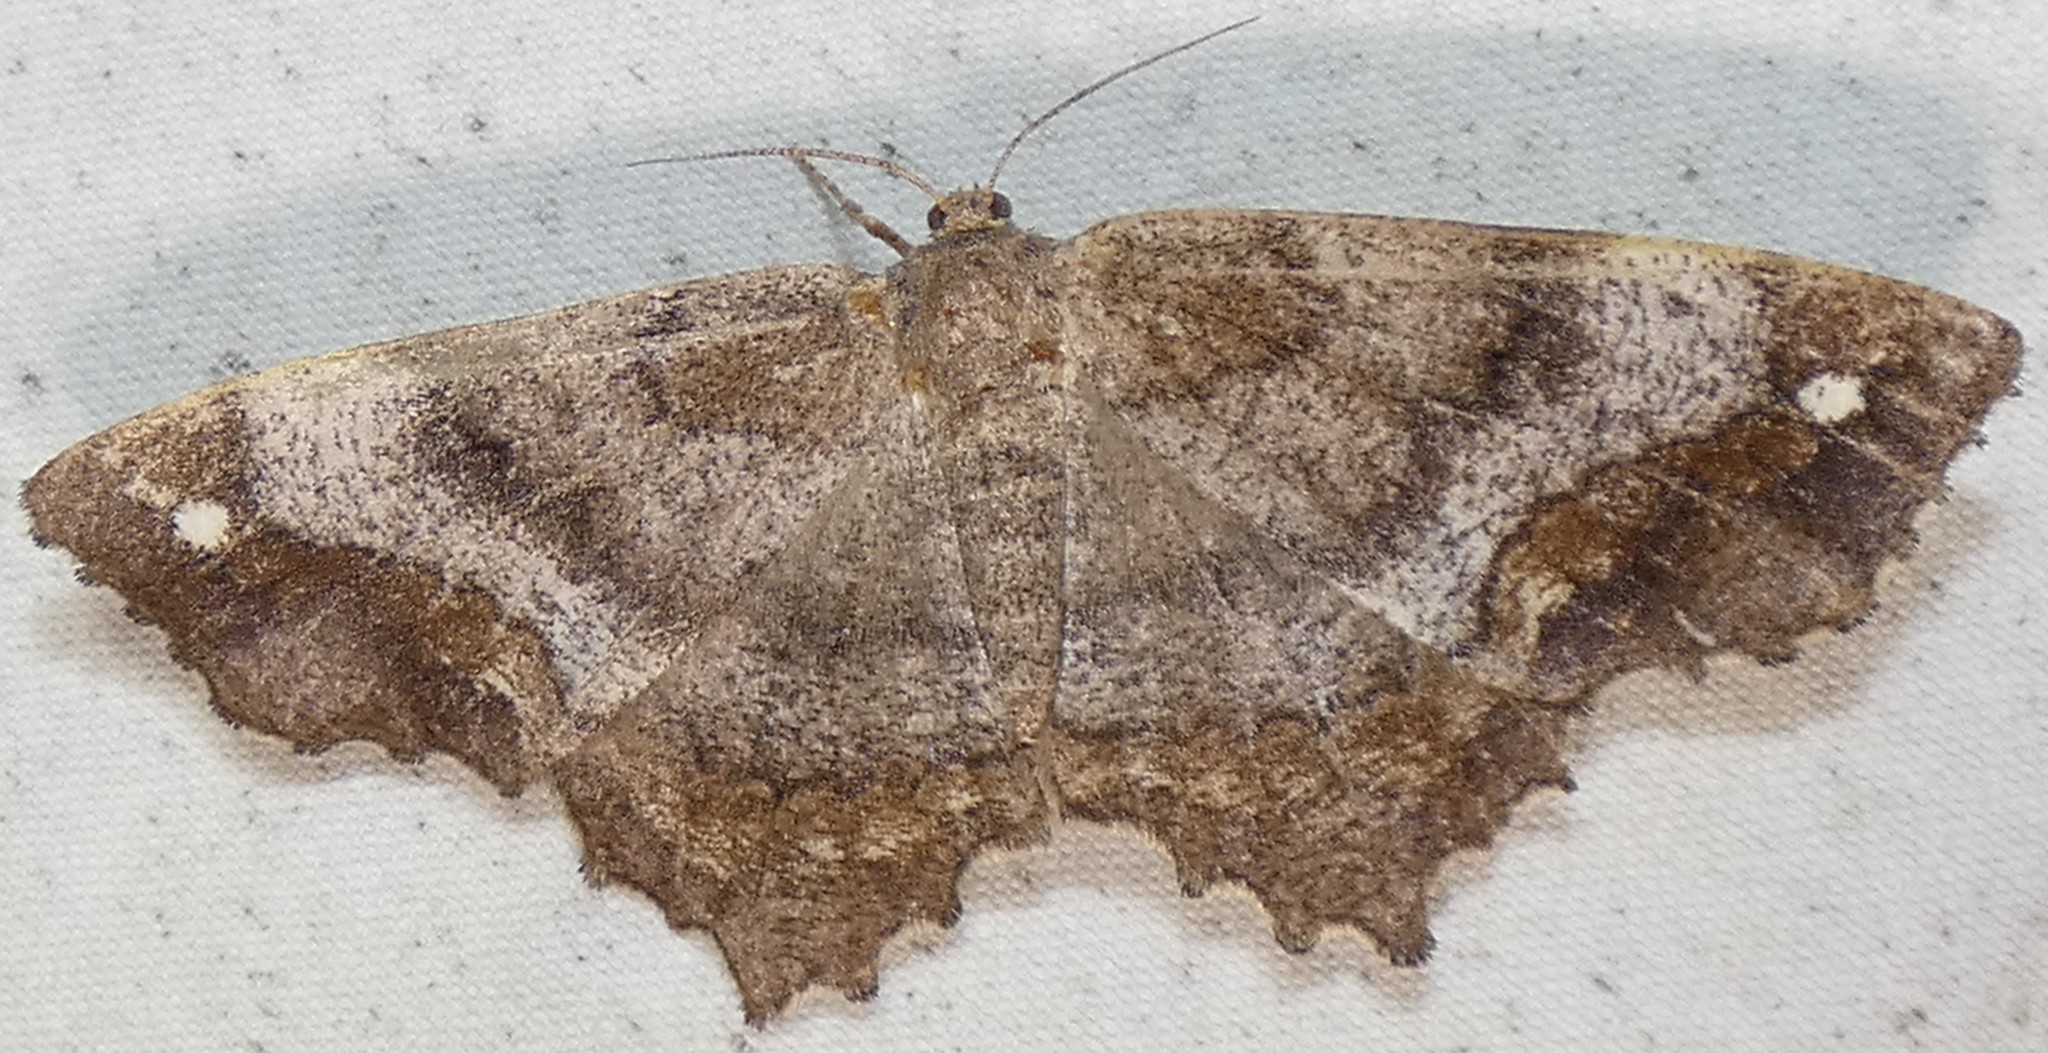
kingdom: Animalia
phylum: Arthropoda
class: Insecta
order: Lepidoptera
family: Geometridae
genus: Hypagyrtis
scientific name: Hypagyrtis unipunctata
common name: One-spotted variant
